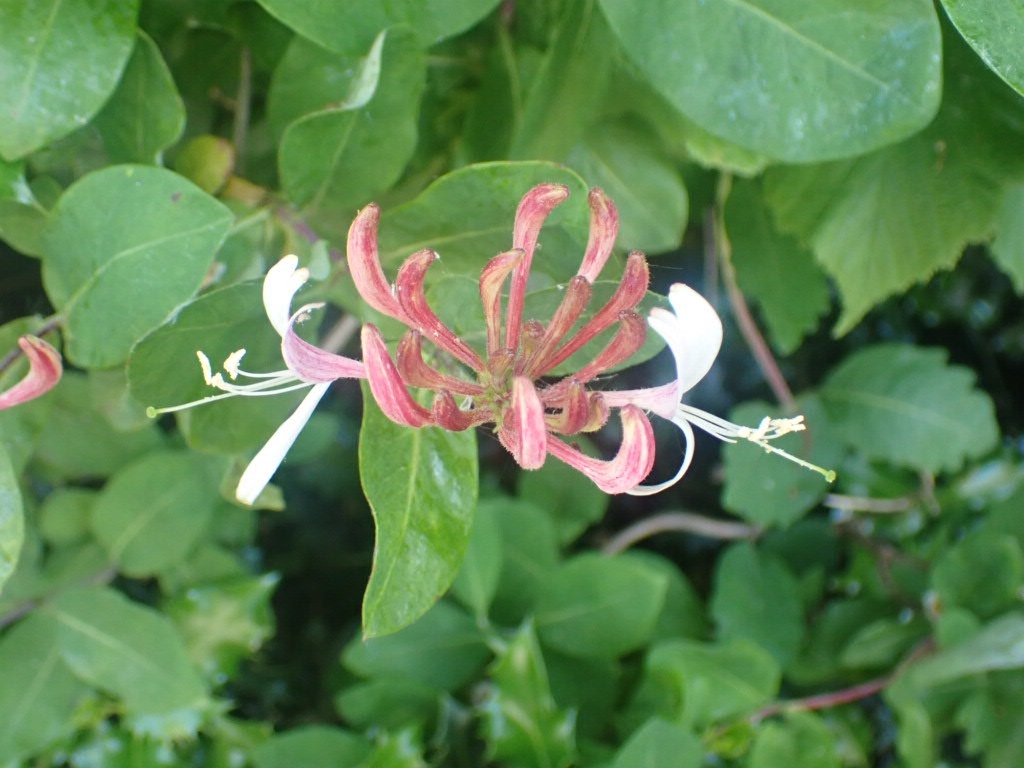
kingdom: Plantae
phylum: Tracheophyta
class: Magnoliopsida
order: Dipsacales
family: Caprifoliaceae
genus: Lonicera
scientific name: Lonicera periclymenum
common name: European honeysuckle
